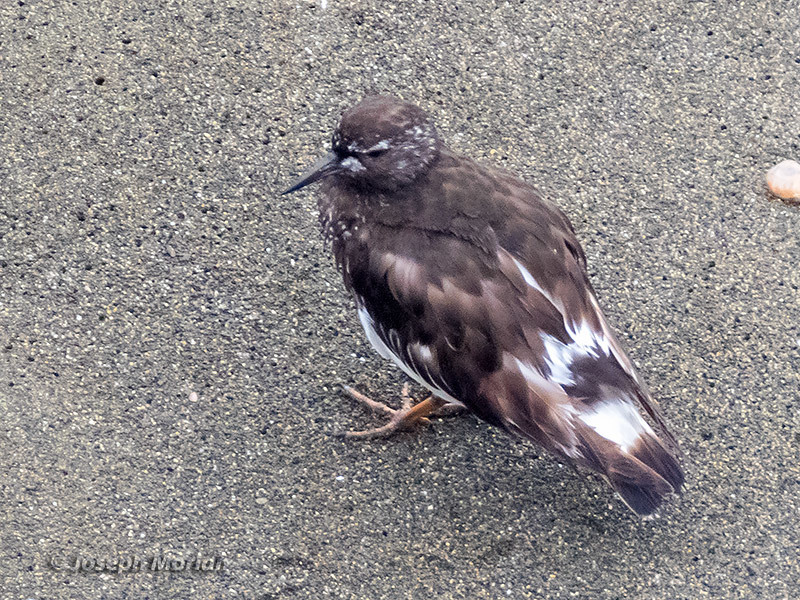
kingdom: Animalia
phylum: Chordata
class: Aves
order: Charadriiformes
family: Scolopacidae
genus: Arenaria
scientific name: Arenaria melanocephala
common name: Black turnstone
